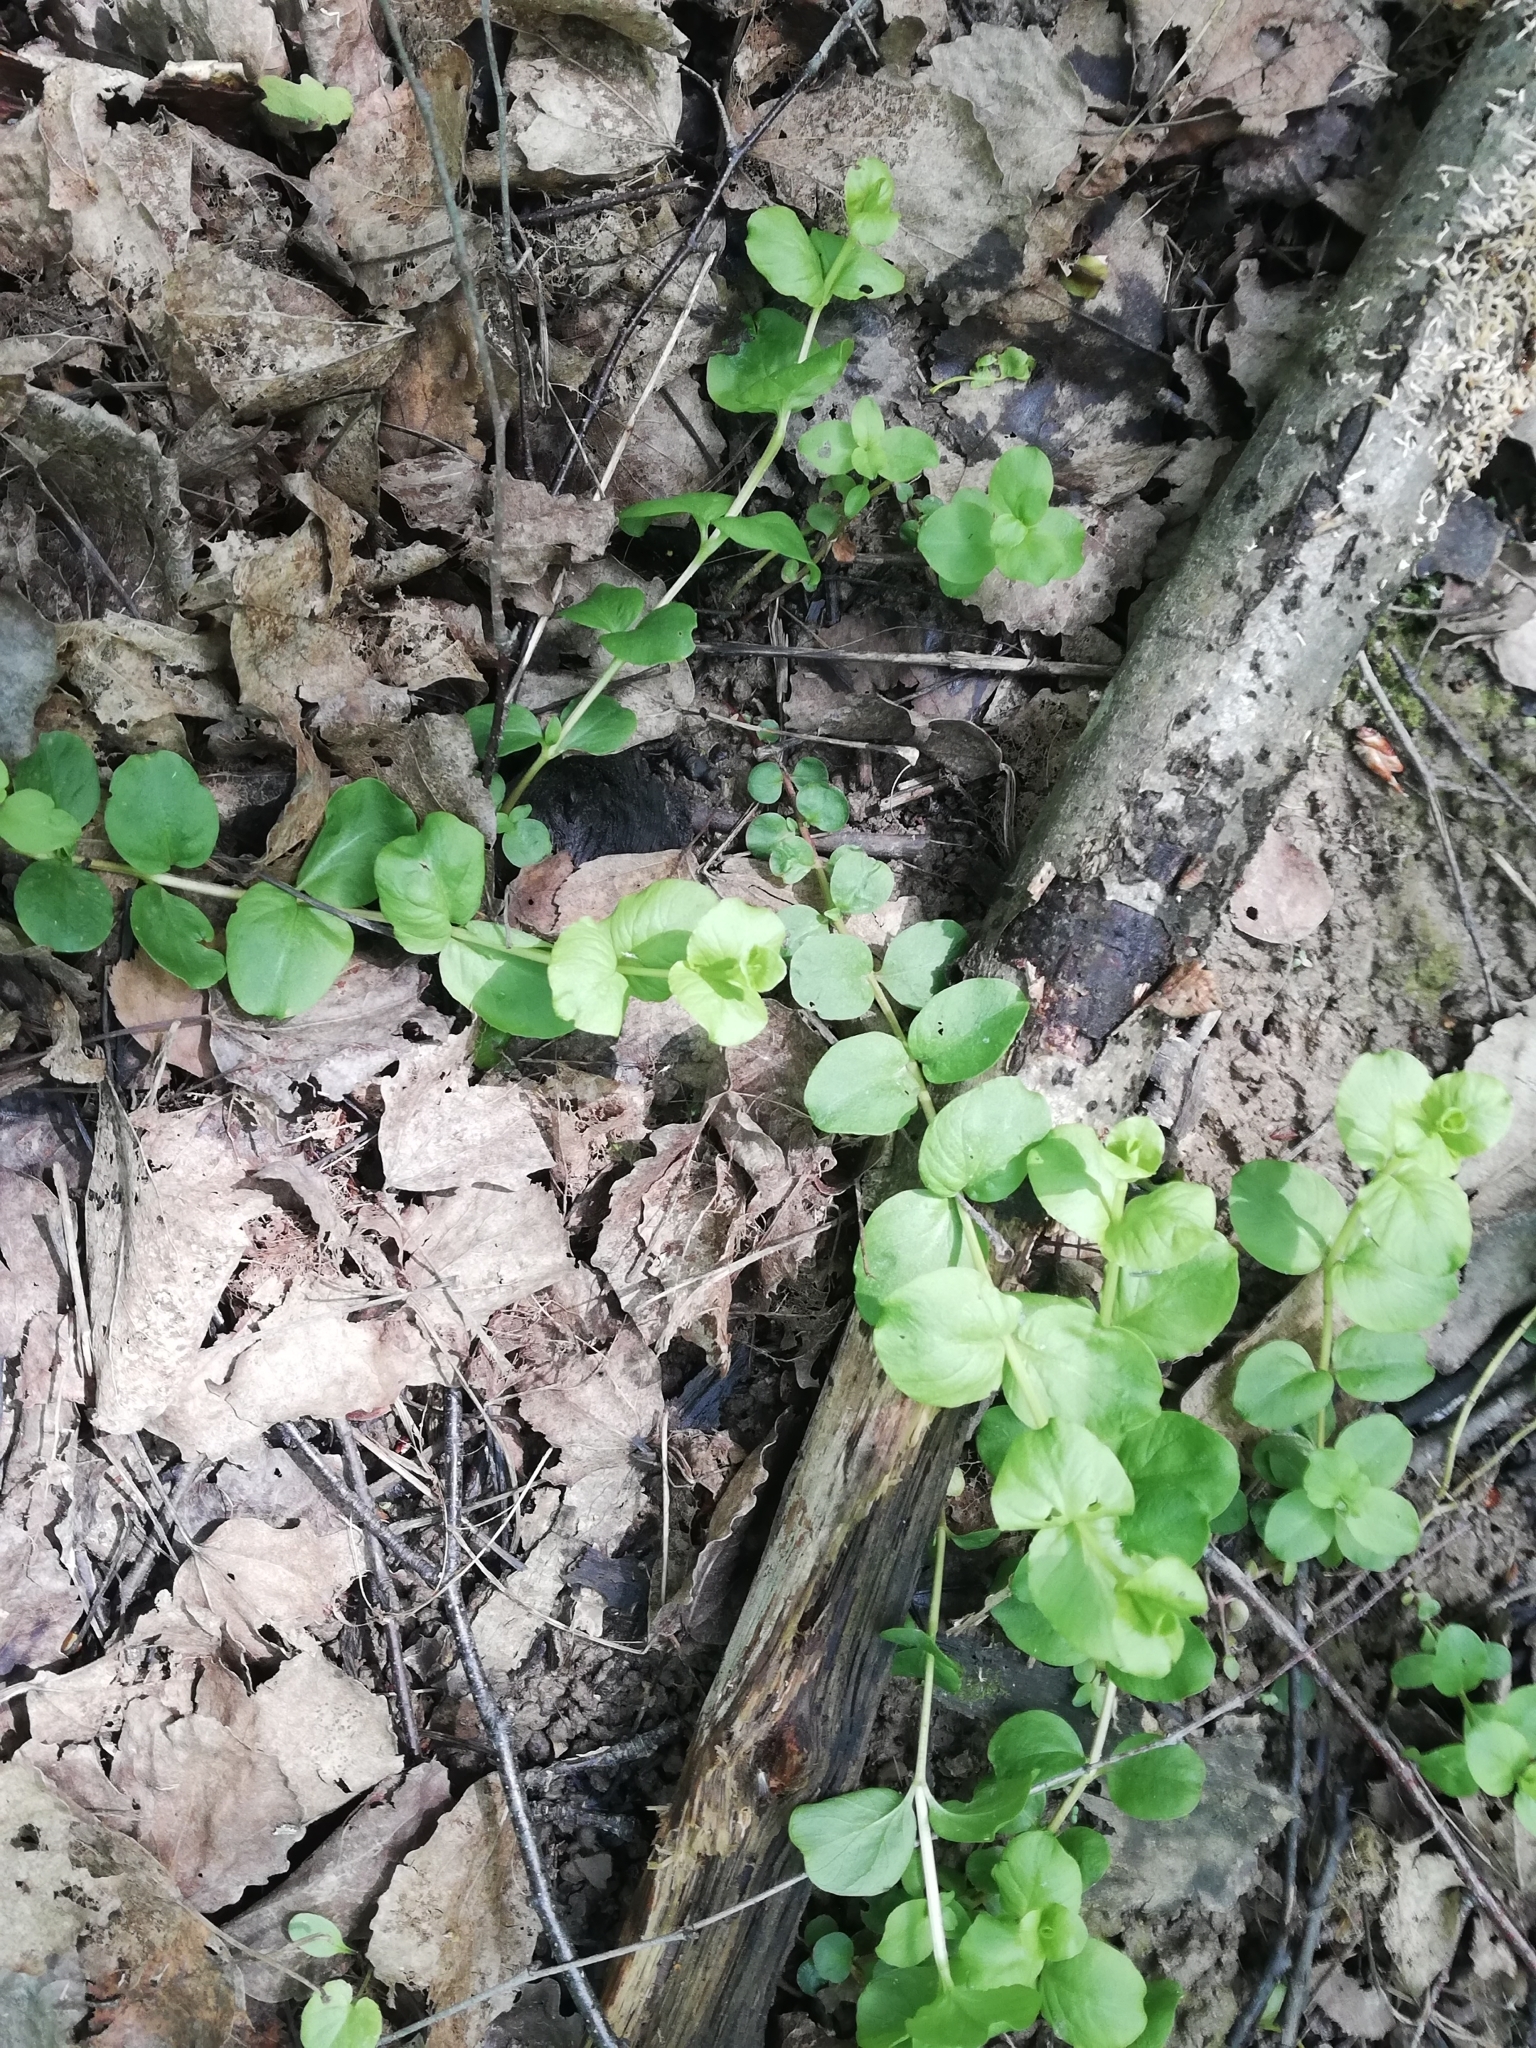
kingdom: Plantae
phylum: Tracheophyta
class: Magnoliopsida
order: Ericales
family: Primulaceae
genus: Lysimachia
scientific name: Lysimachia nummularia
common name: Moneywort
